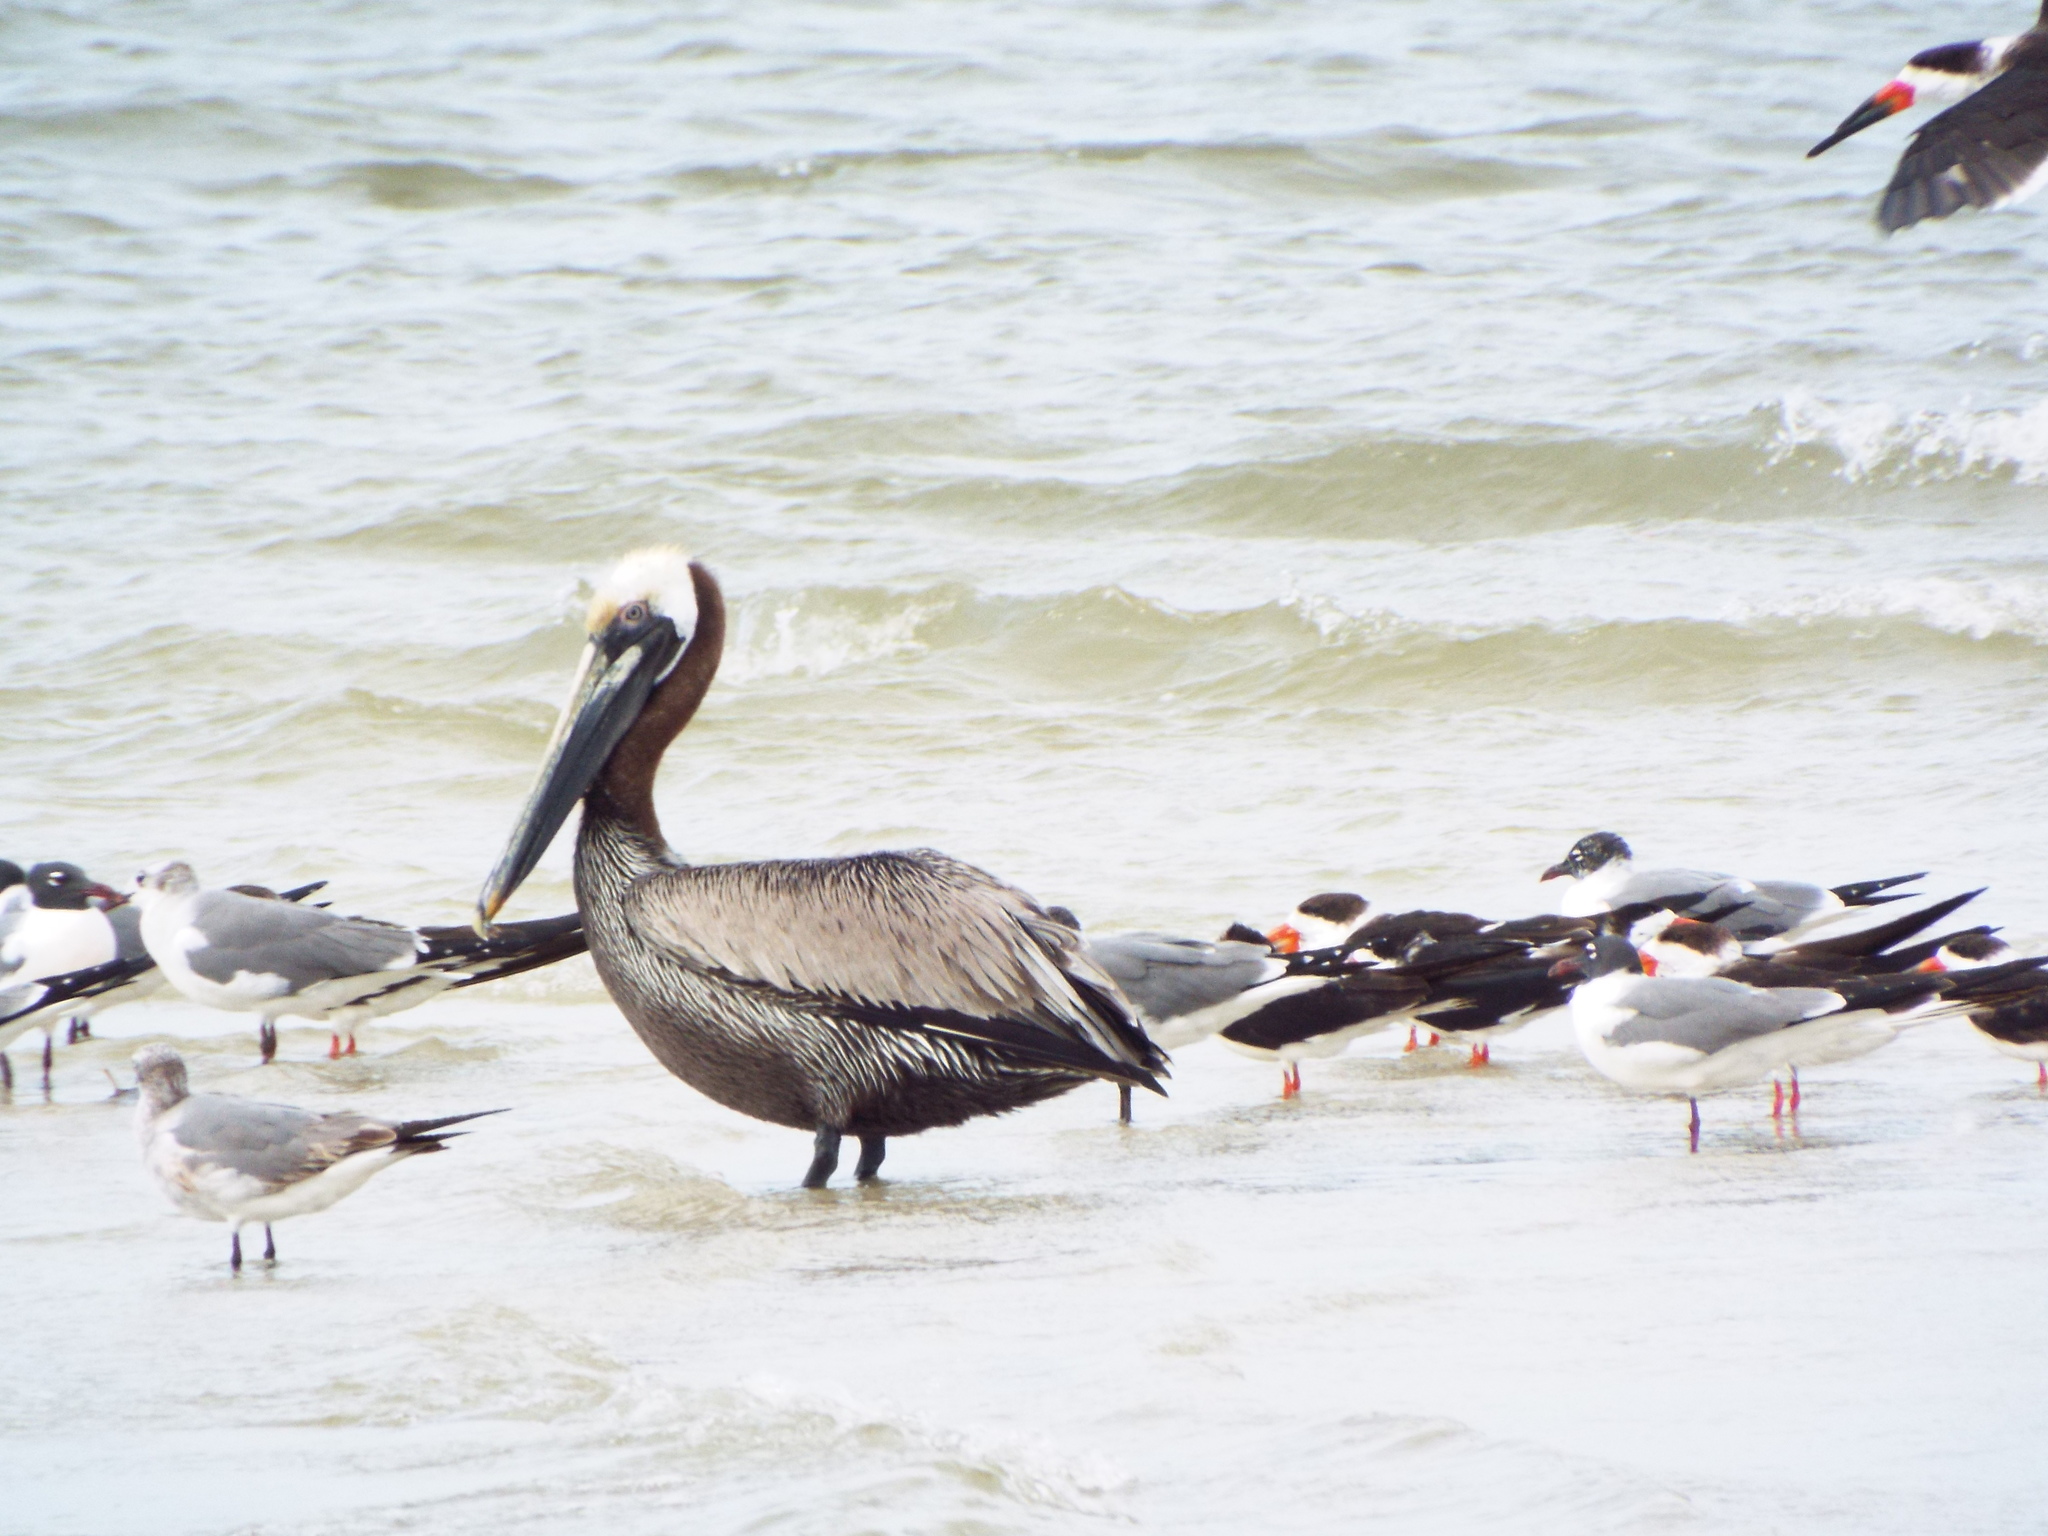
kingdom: Animalia
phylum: Chordata
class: Aves
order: Pelecaniformes
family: Pelecanidae
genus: Pelecanus
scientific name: Pelecanus occidentalis
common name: Brown pelican
